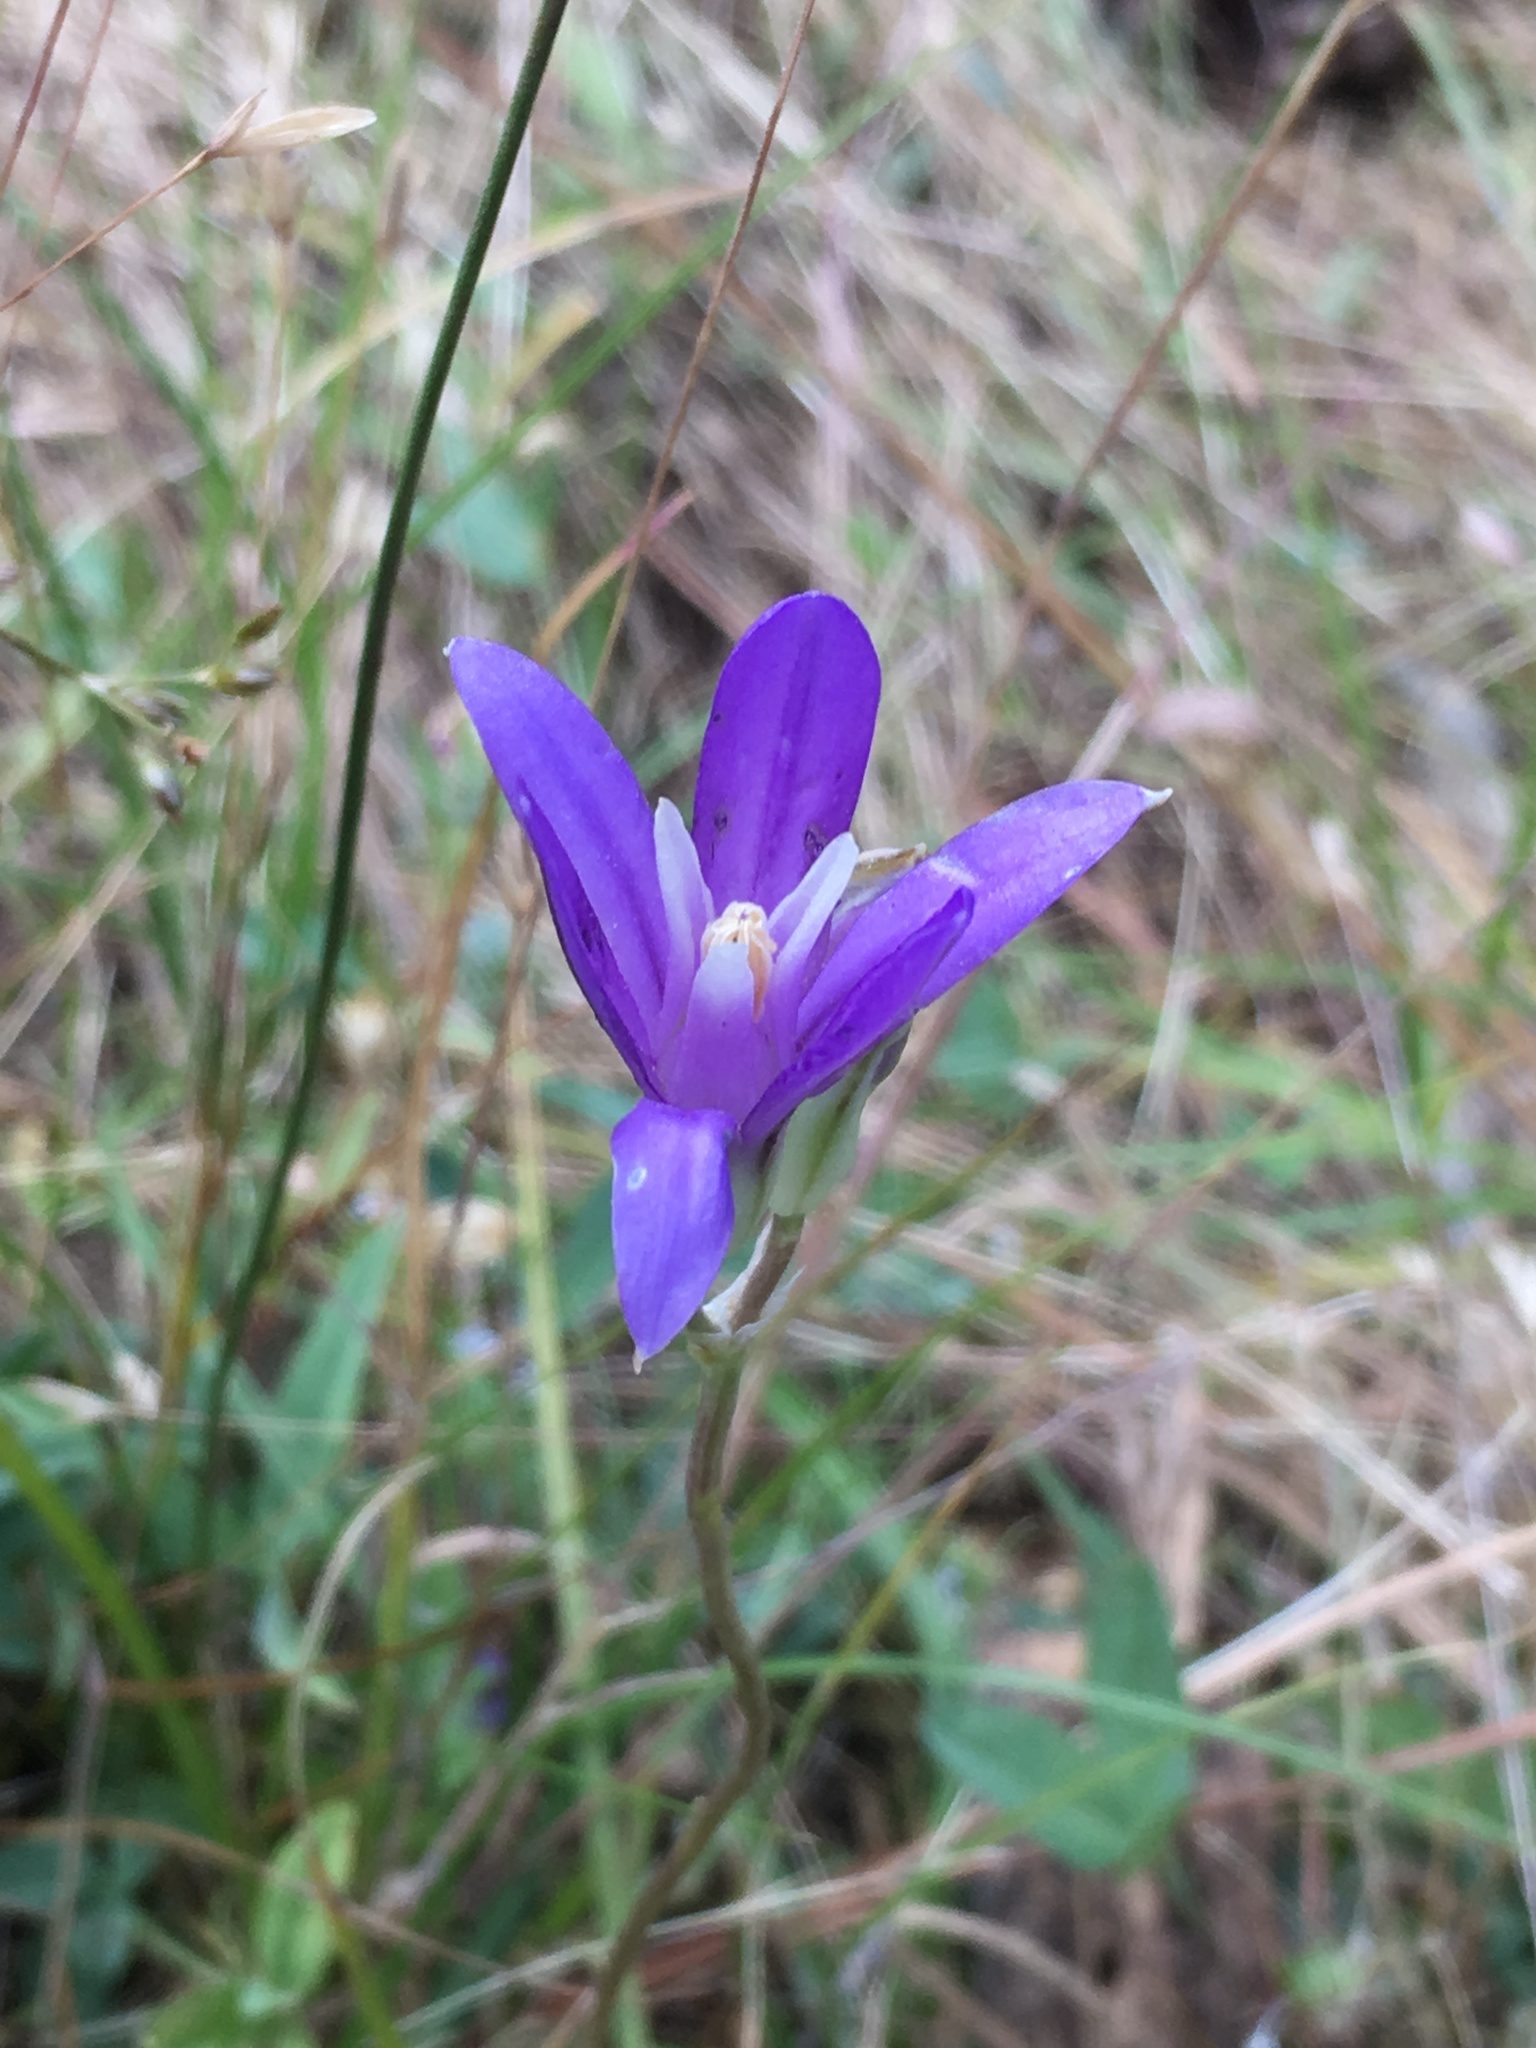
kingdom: Plantae
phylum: Tracheophyta
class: Liliopsida
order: Asparagales
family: Asparagaceae
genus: Brodiaea
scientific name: Brodiaea coronaria
